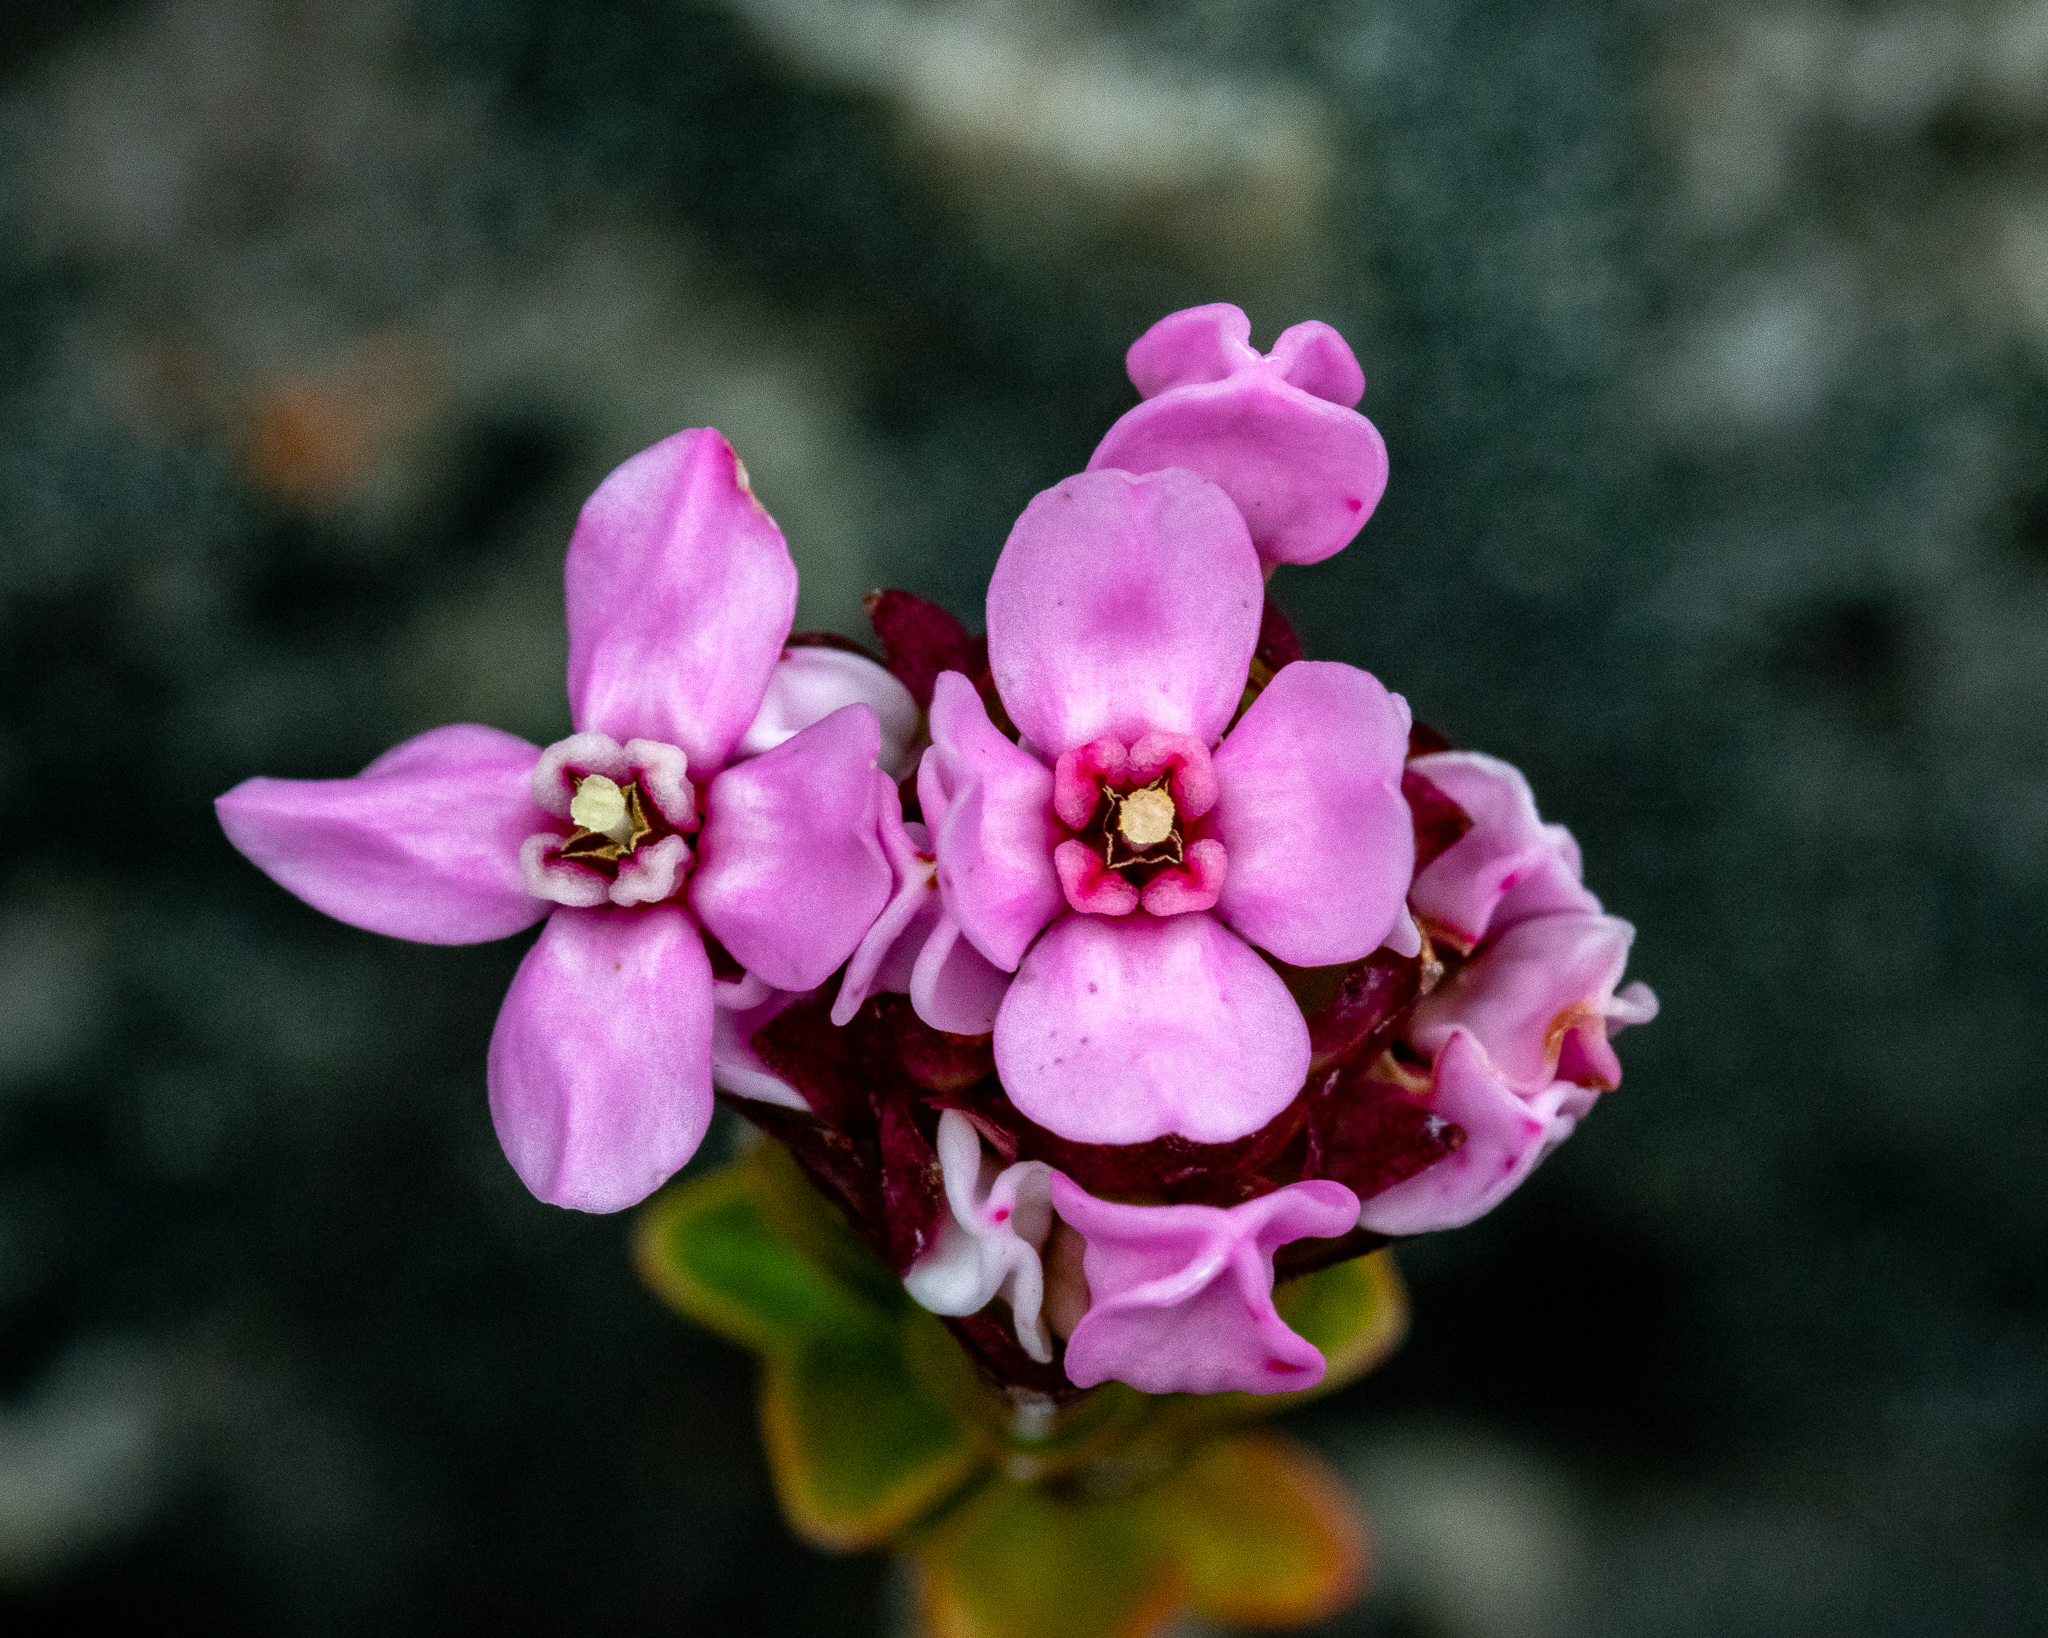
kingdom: Plantae
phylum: Tracheophyta
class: Magnoliopsida
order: Myrtales
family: Penaeaceae
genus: Sonderothamnus
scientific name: Sonderothamnus petraeus
